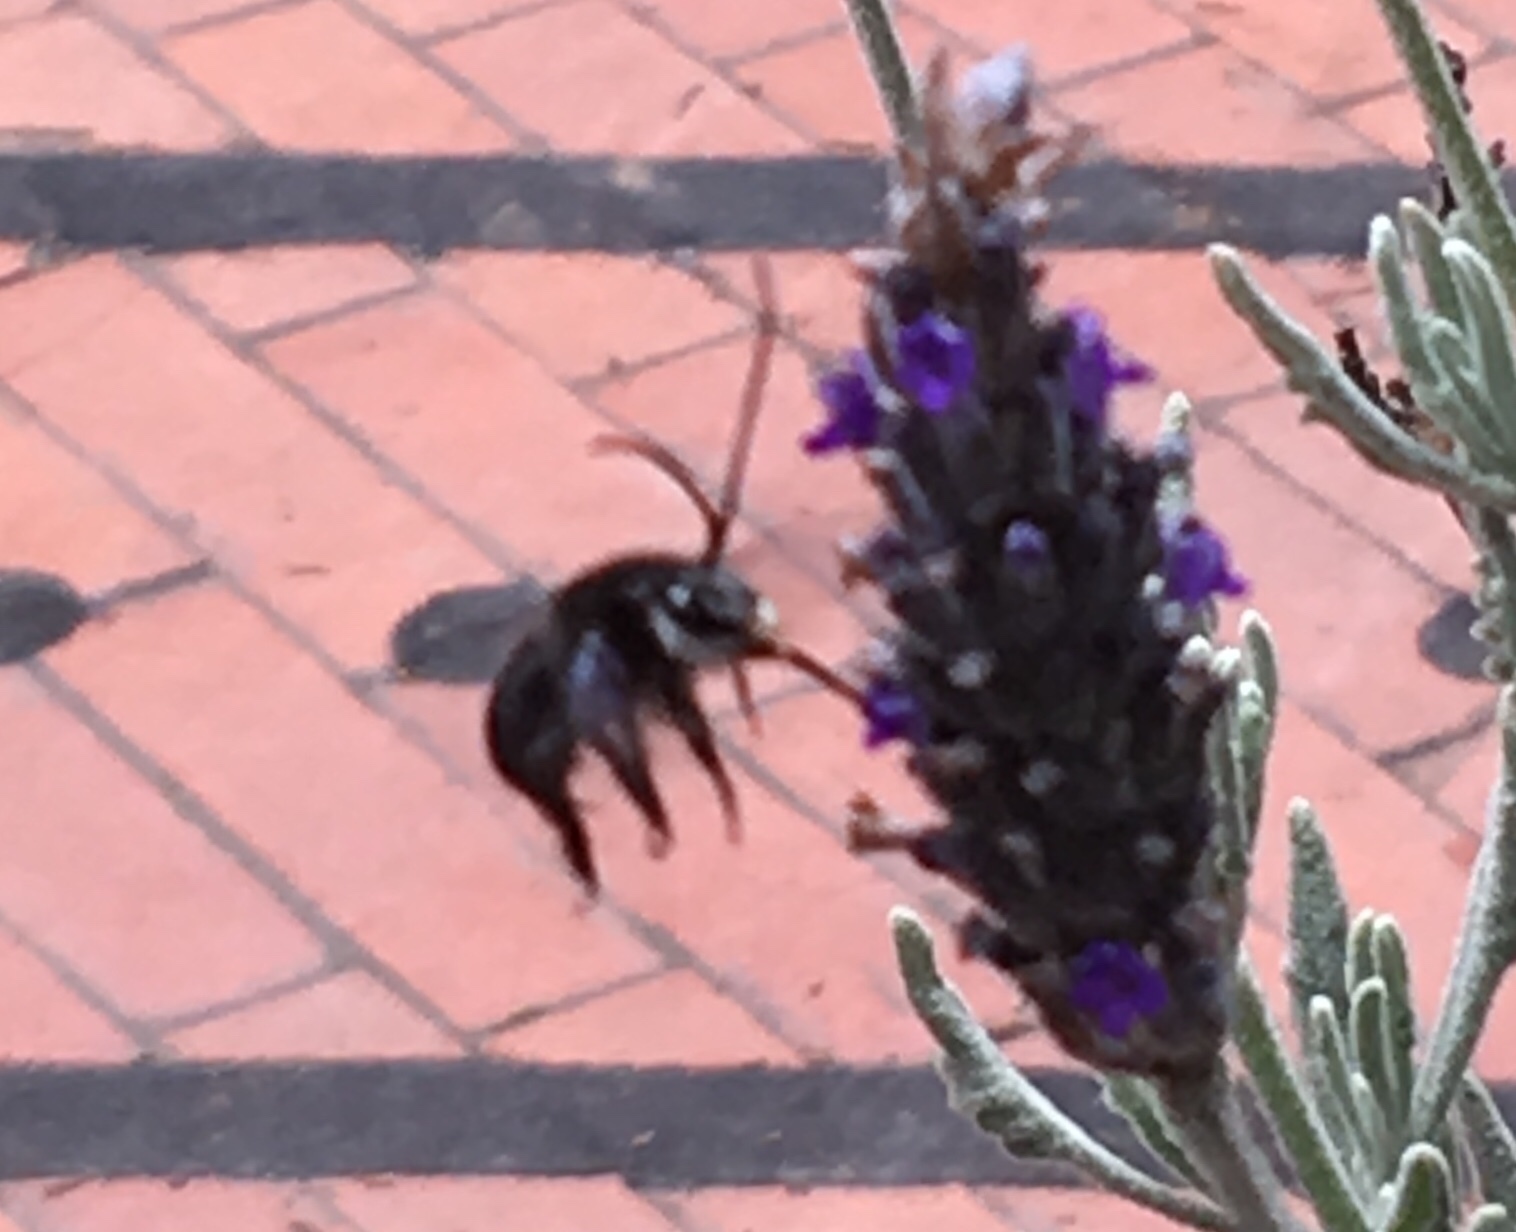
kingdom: Animalia
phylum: Arthropoda
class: Insecta
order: Hymenoptera
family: Apidae
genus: Thygater
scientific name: Thygater aethiops
